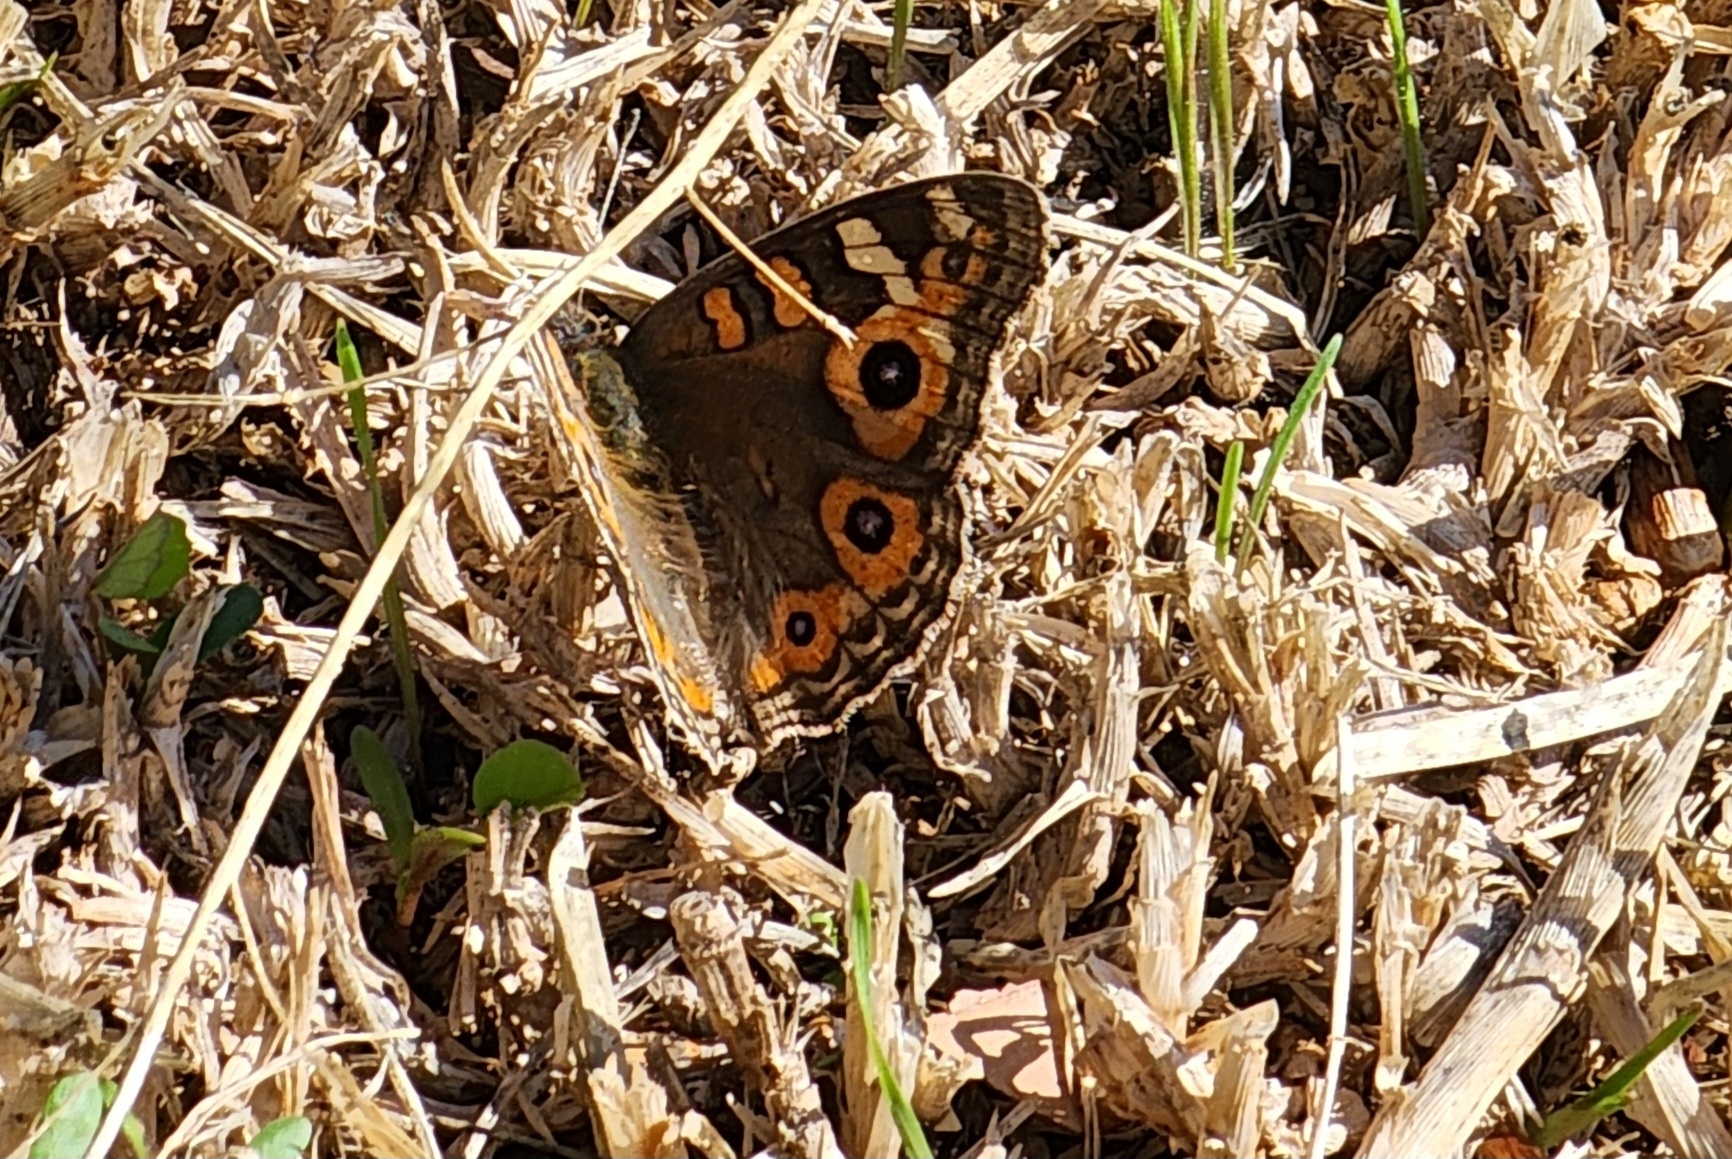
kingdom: Animalia
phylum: Arthropoda
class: Insecta
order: Lepidoptera
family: Nymphalidae
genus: Junonia
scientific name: Junonia villida
